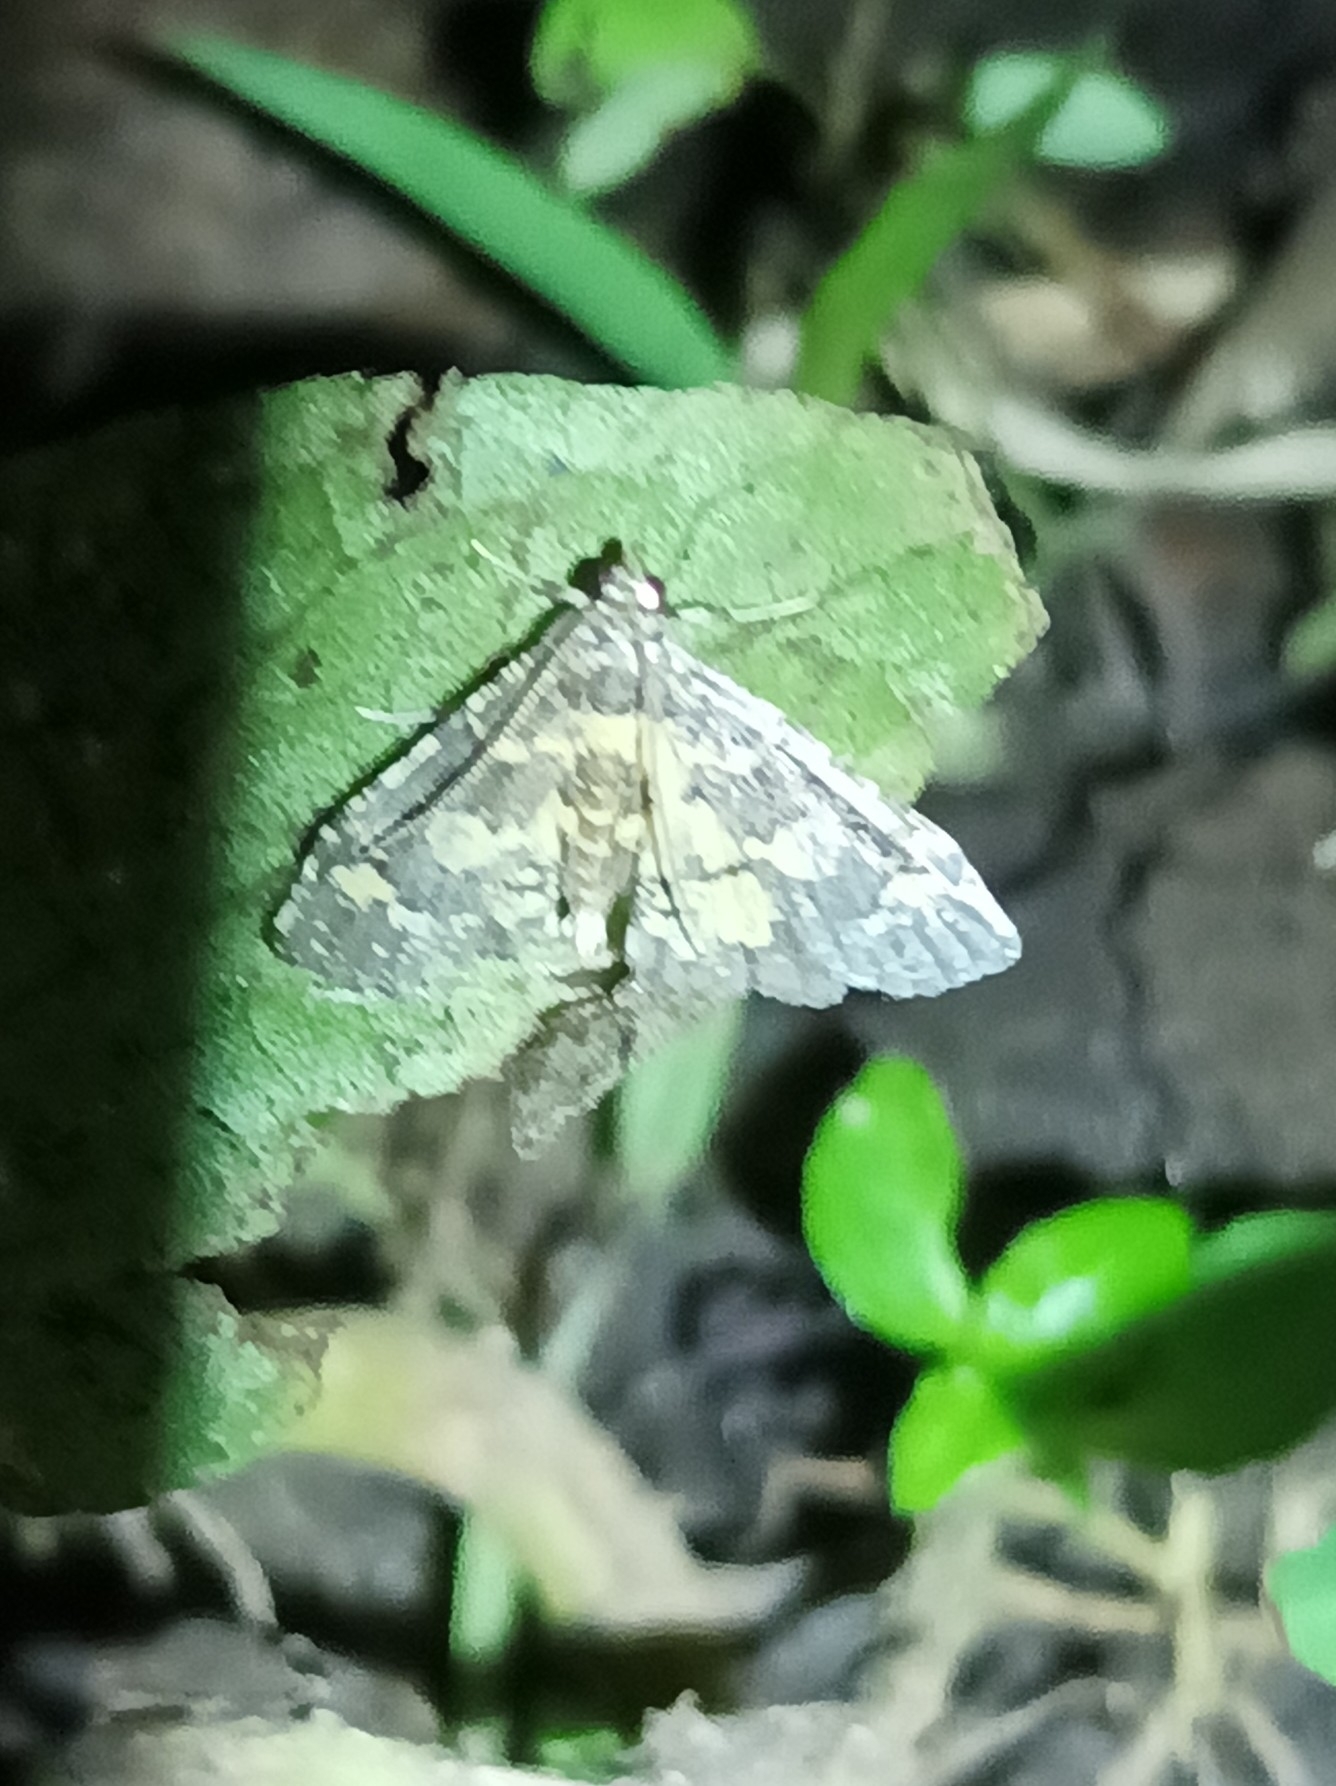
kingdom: Animalia
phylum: Arthropoda
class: Insecta
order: Lepidoptera
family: Crambidae
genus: Eurrhyparodes
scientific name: Eurrhyparodes bracteolalis
